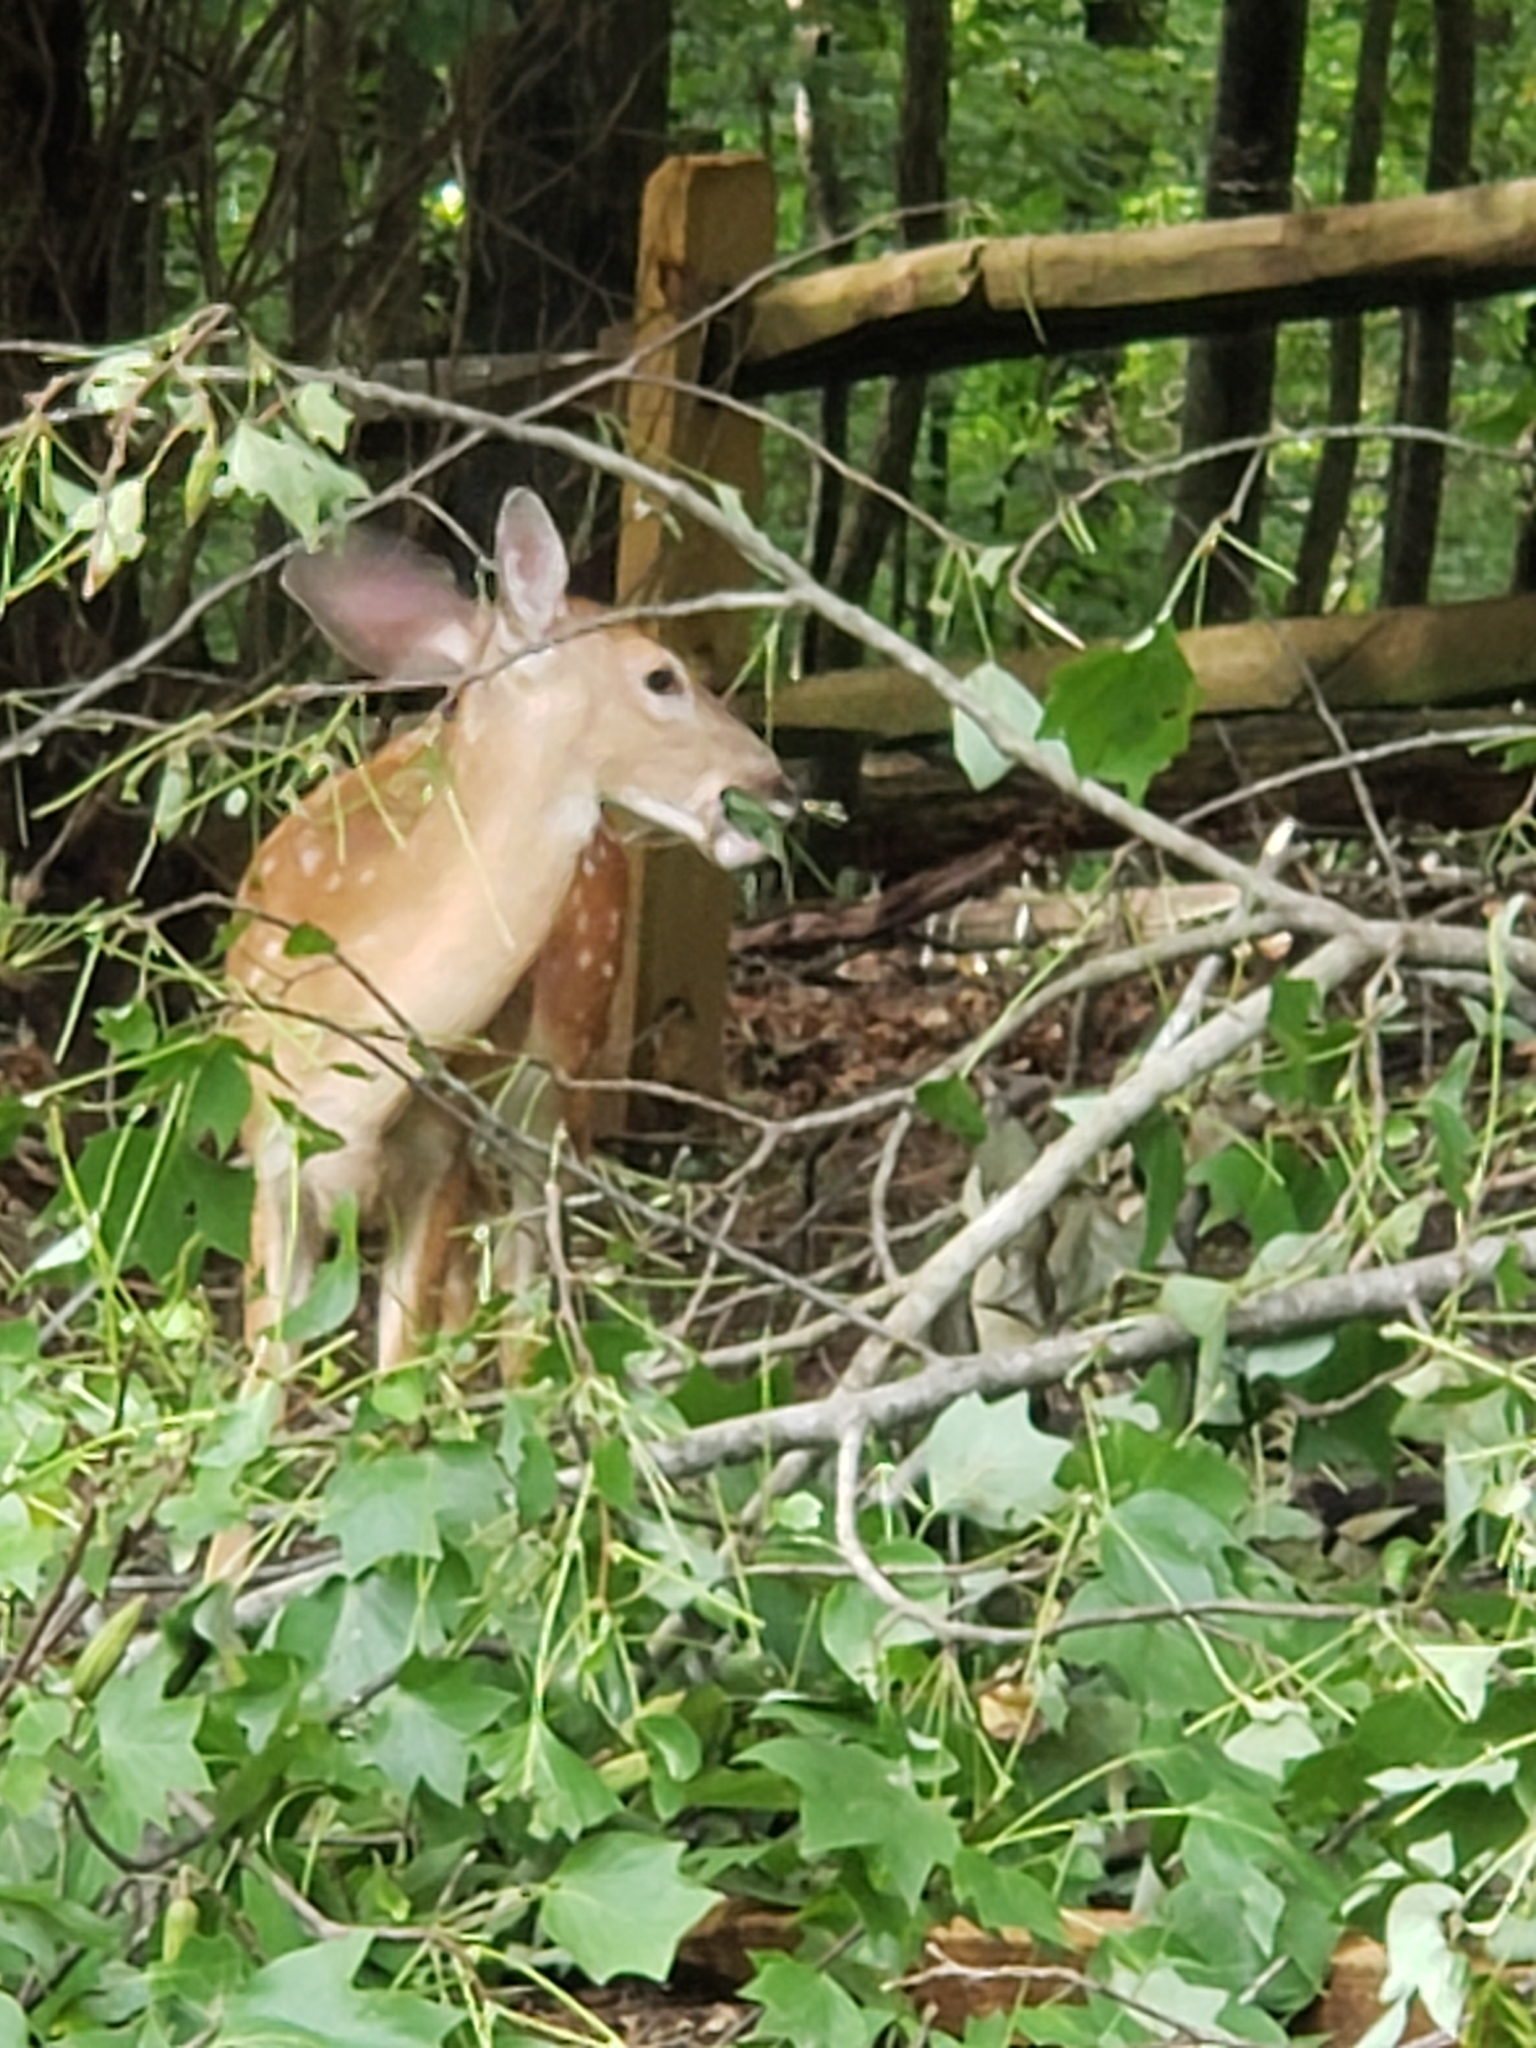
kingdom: Animalia
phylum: Chordata
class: Mammalia
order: Artiodactyla
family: Cervidae
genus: Odocoileus
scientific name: Odocoileus virginianus
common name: White-tailed deer
